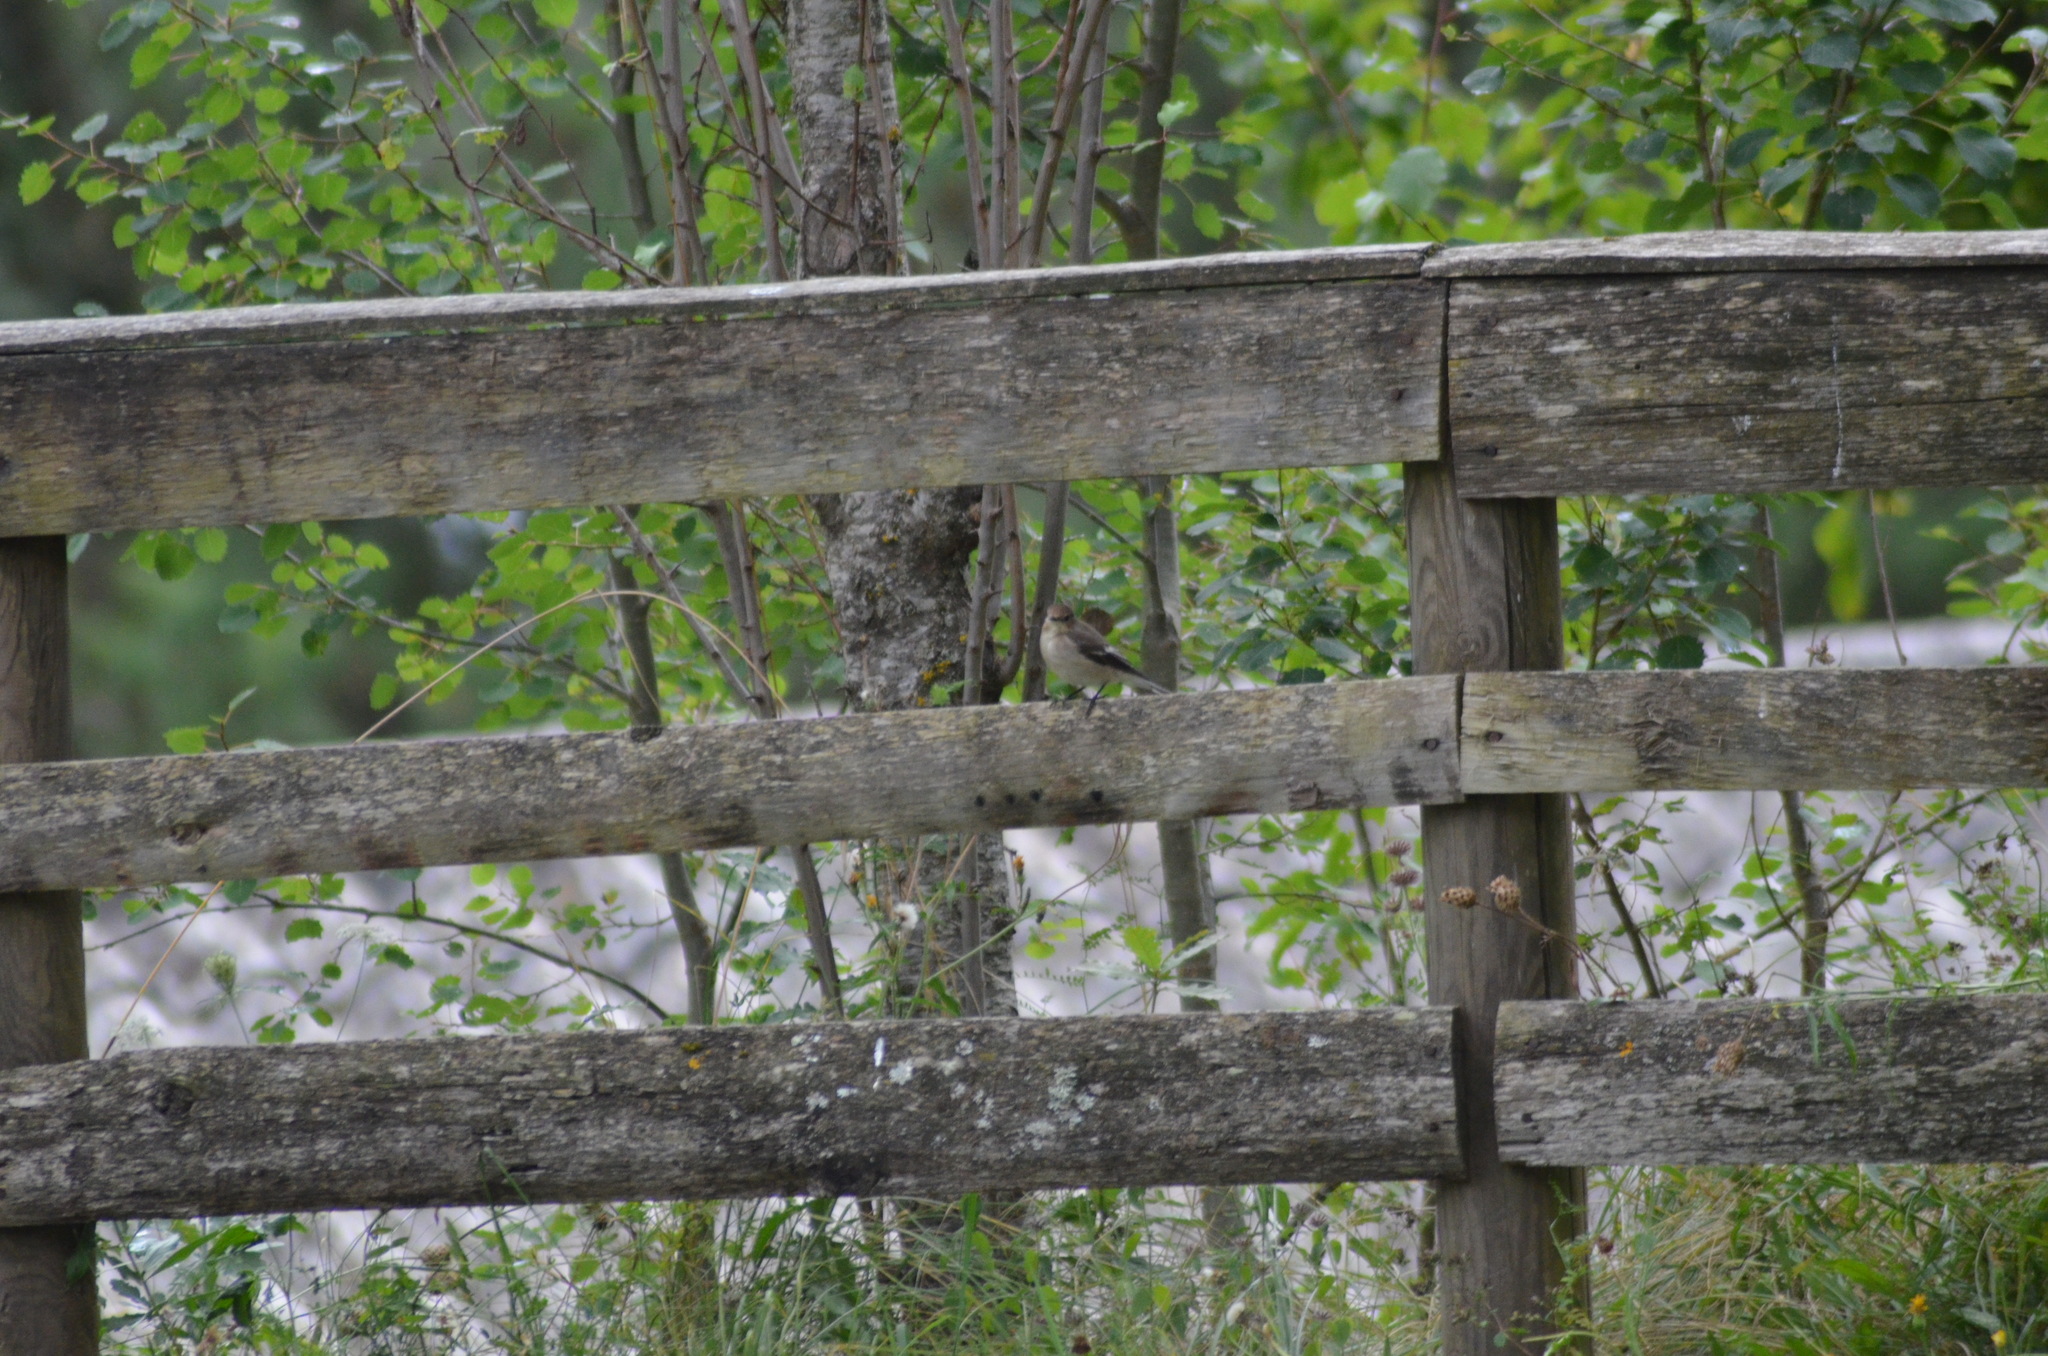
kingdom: Animalia
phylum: Chordata
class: Aves
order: Passeriformes
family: Muscicapidae
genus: Ficedula
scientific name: Ficedula hypoleuca
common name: European pied flycatcher
